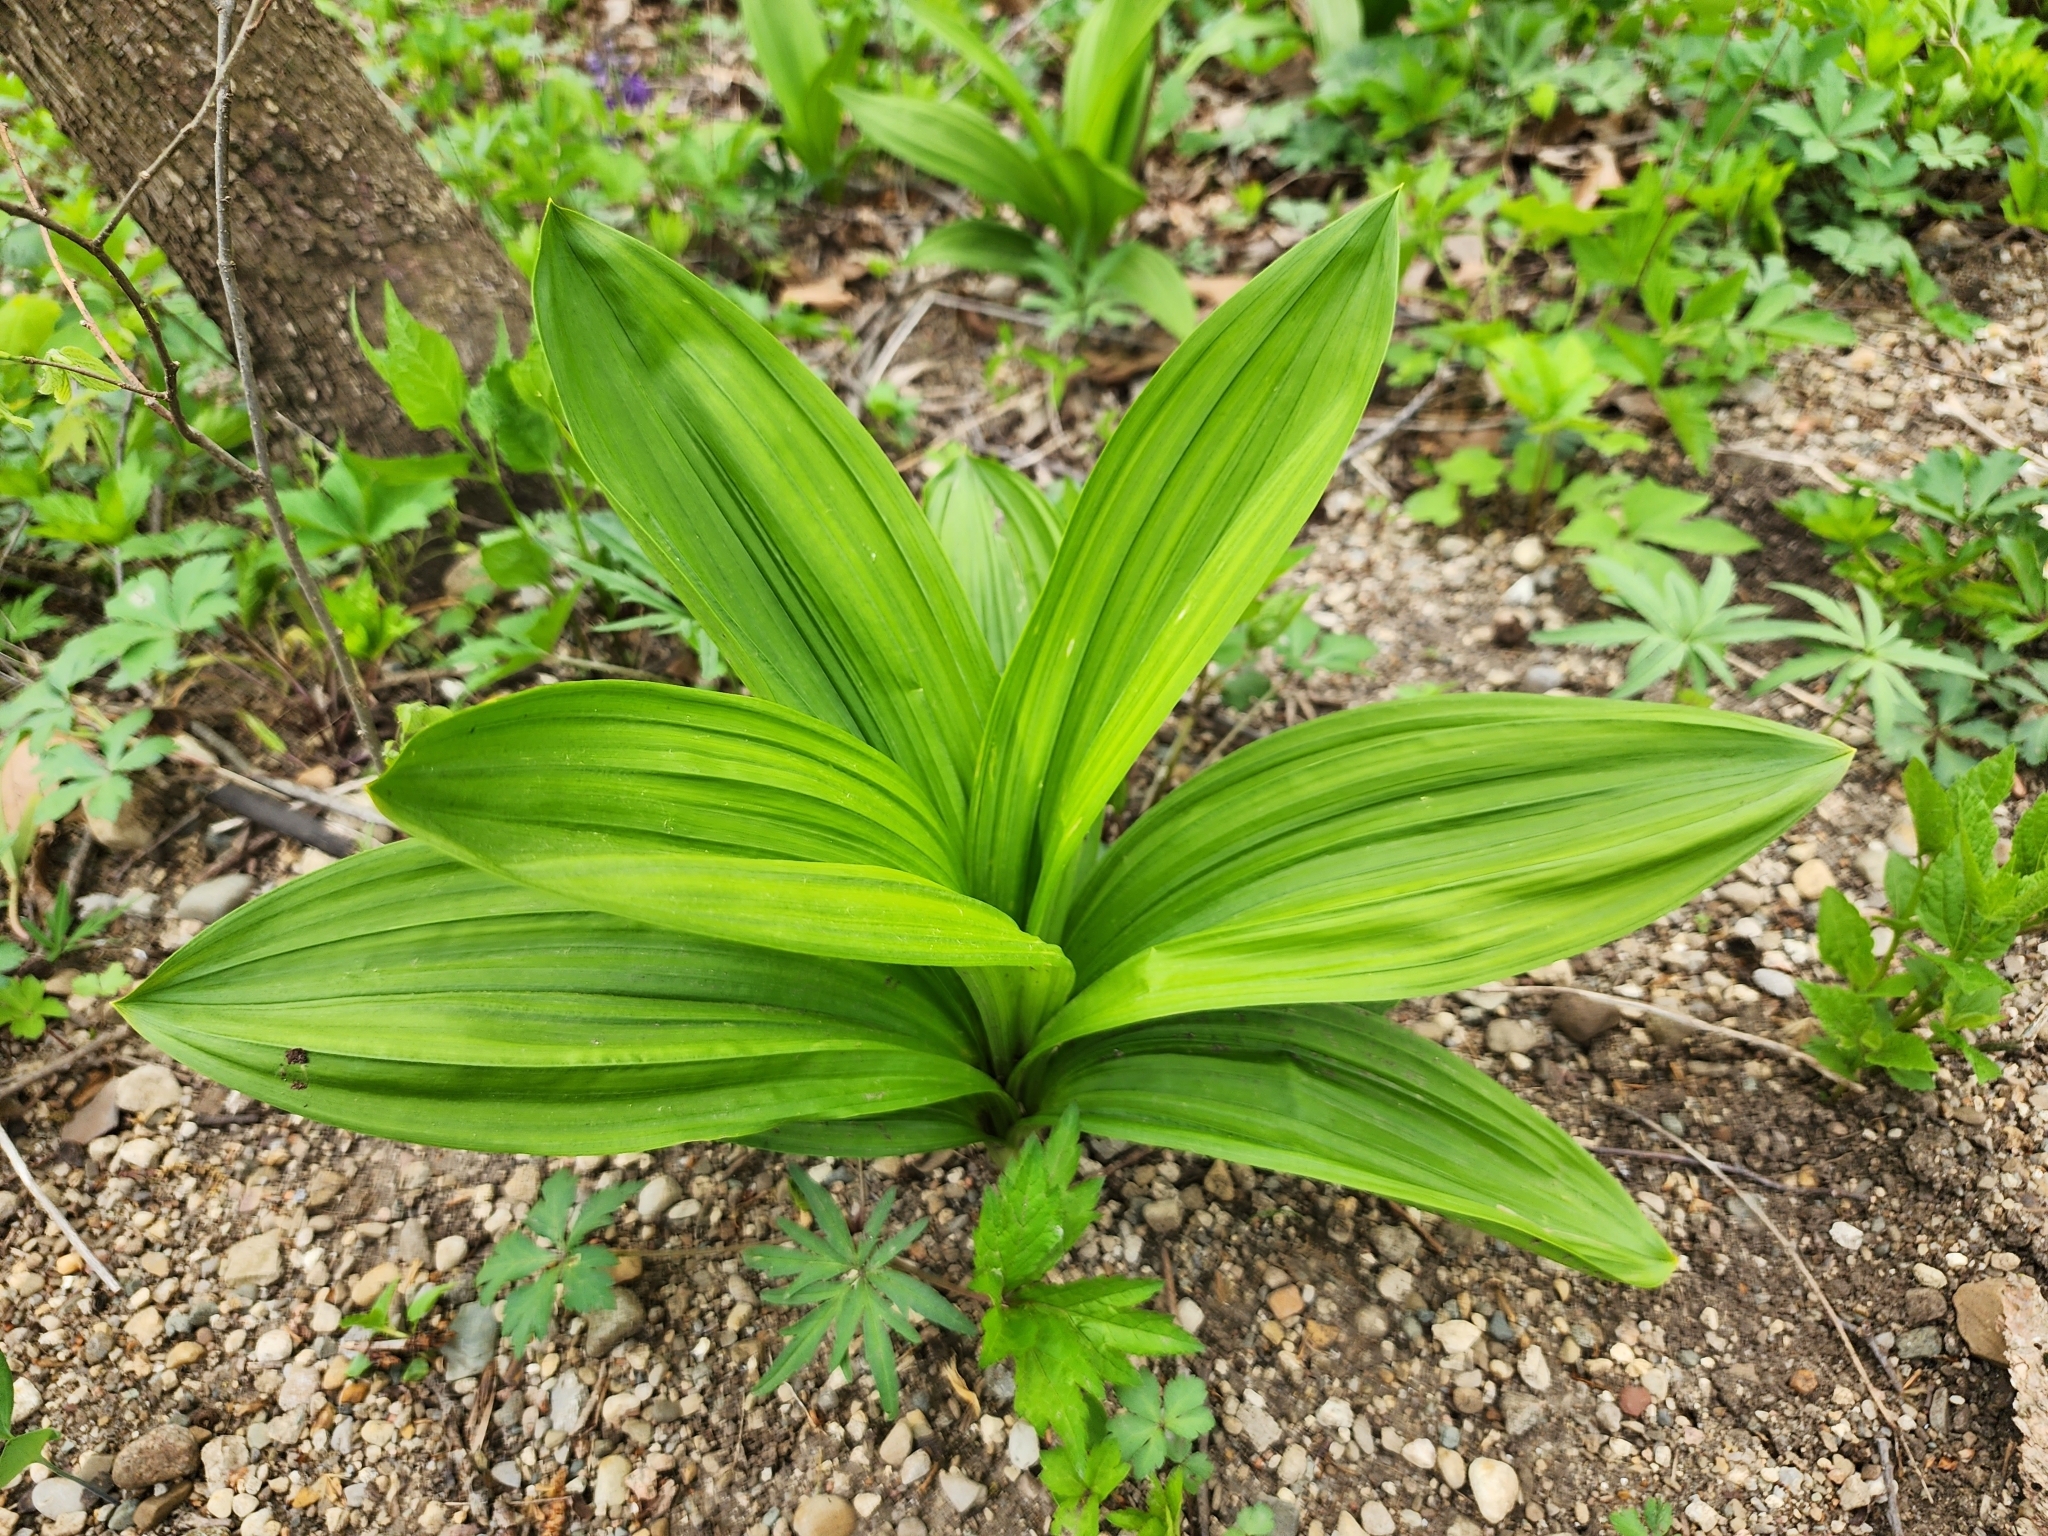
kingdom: Plantae
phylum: Tracheophyta
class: Liliopsida
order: Liliales
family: Melanthiaceae
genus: Veratrum
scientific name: Veratrum woodii
